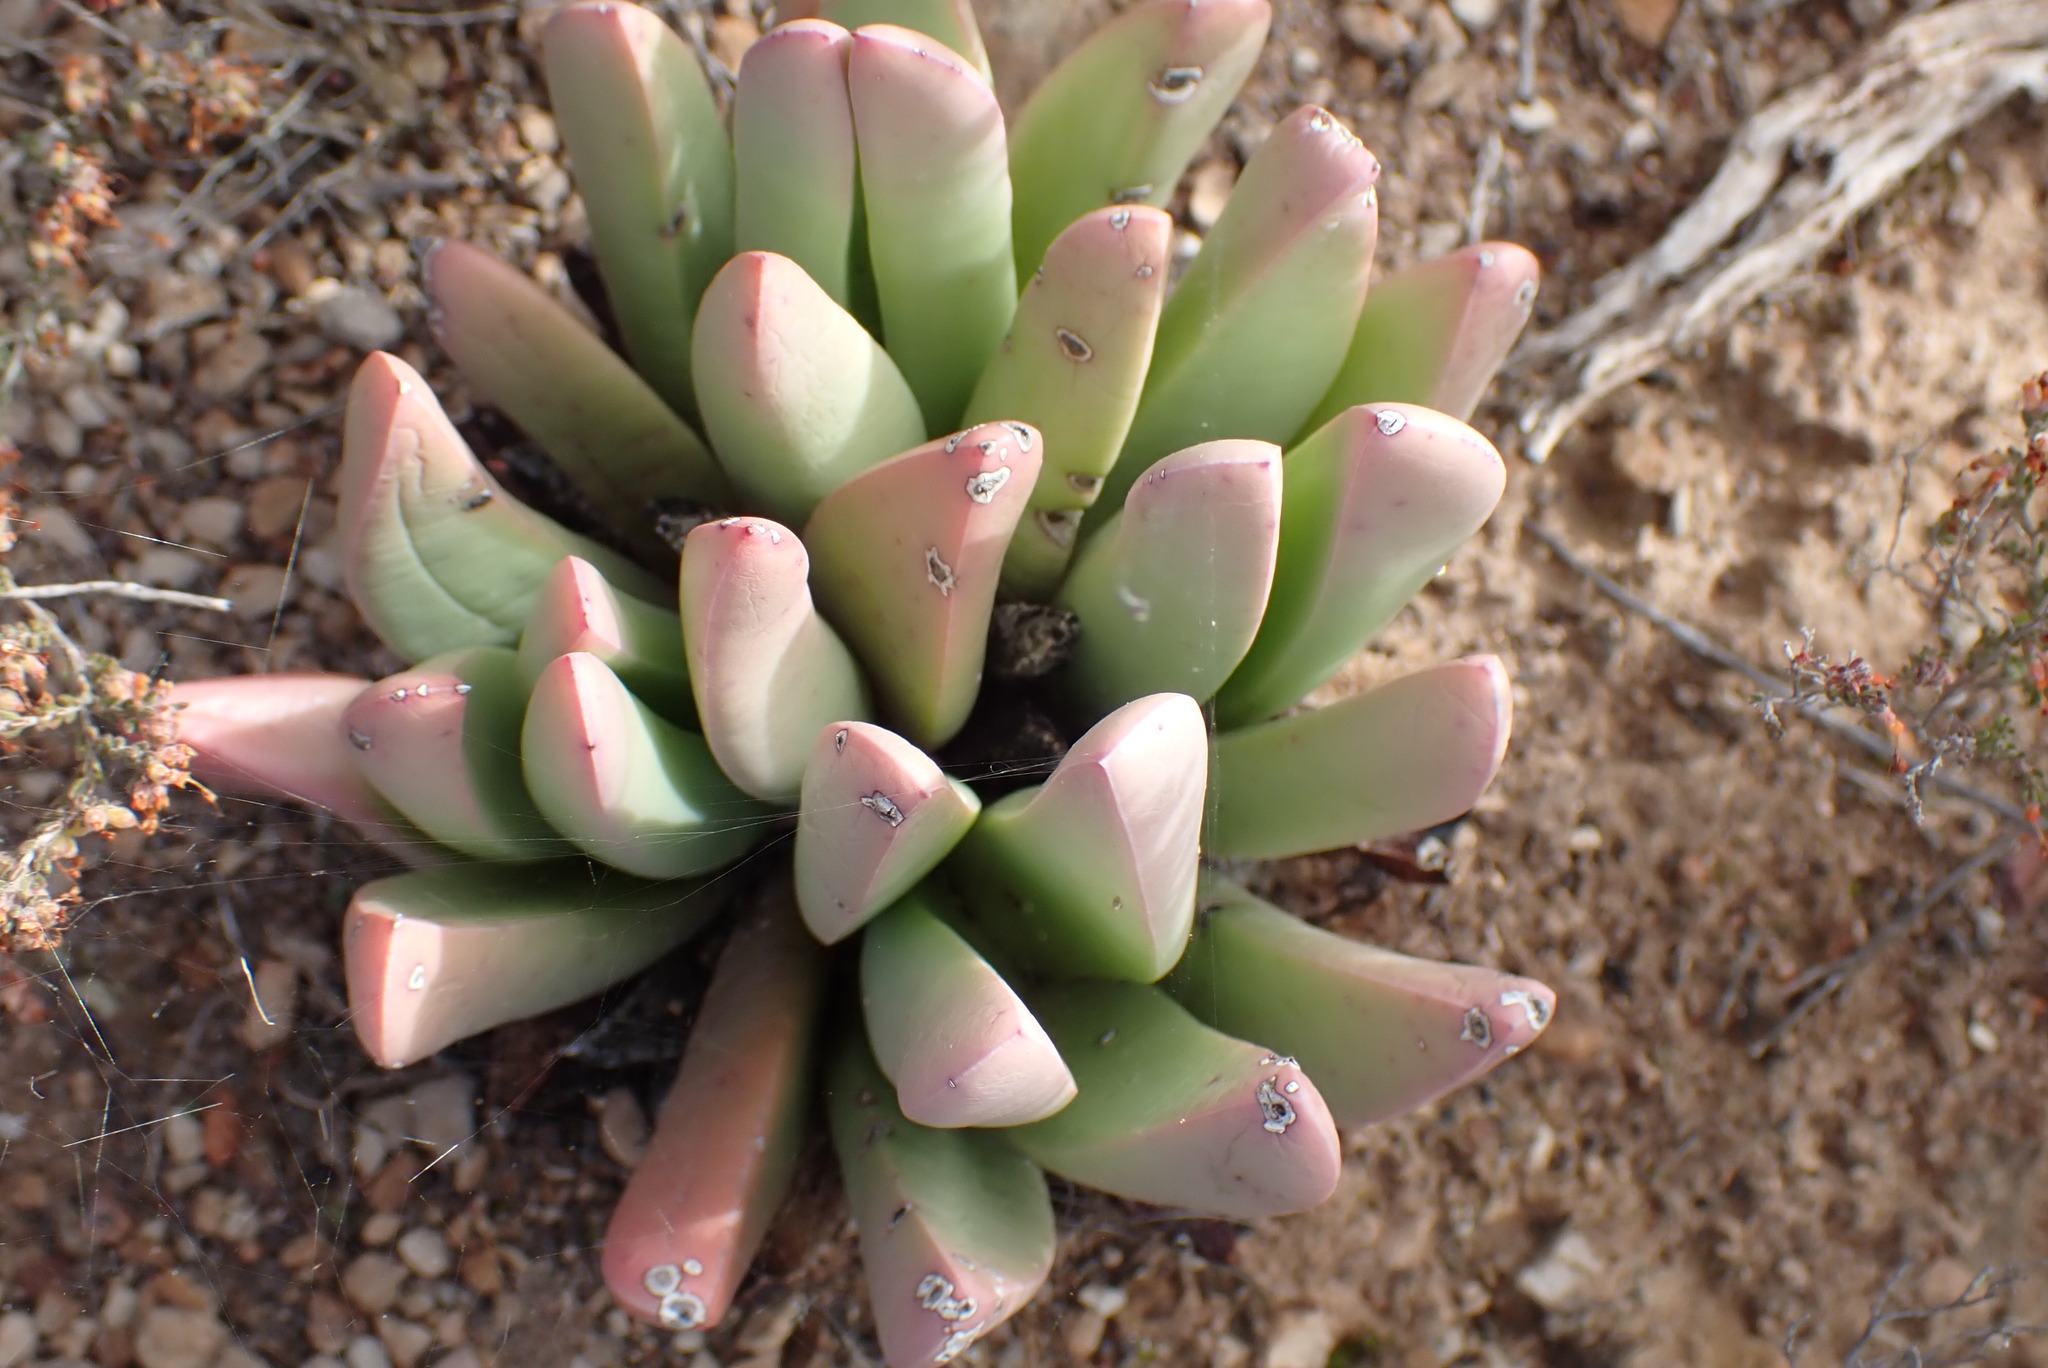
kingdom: Plantae
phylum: Tracheophyta
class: Magnoliopsida
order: Caryophyllales
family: Aizoaceae
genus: Machairophyllum
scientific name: Machairophyllum albidum
